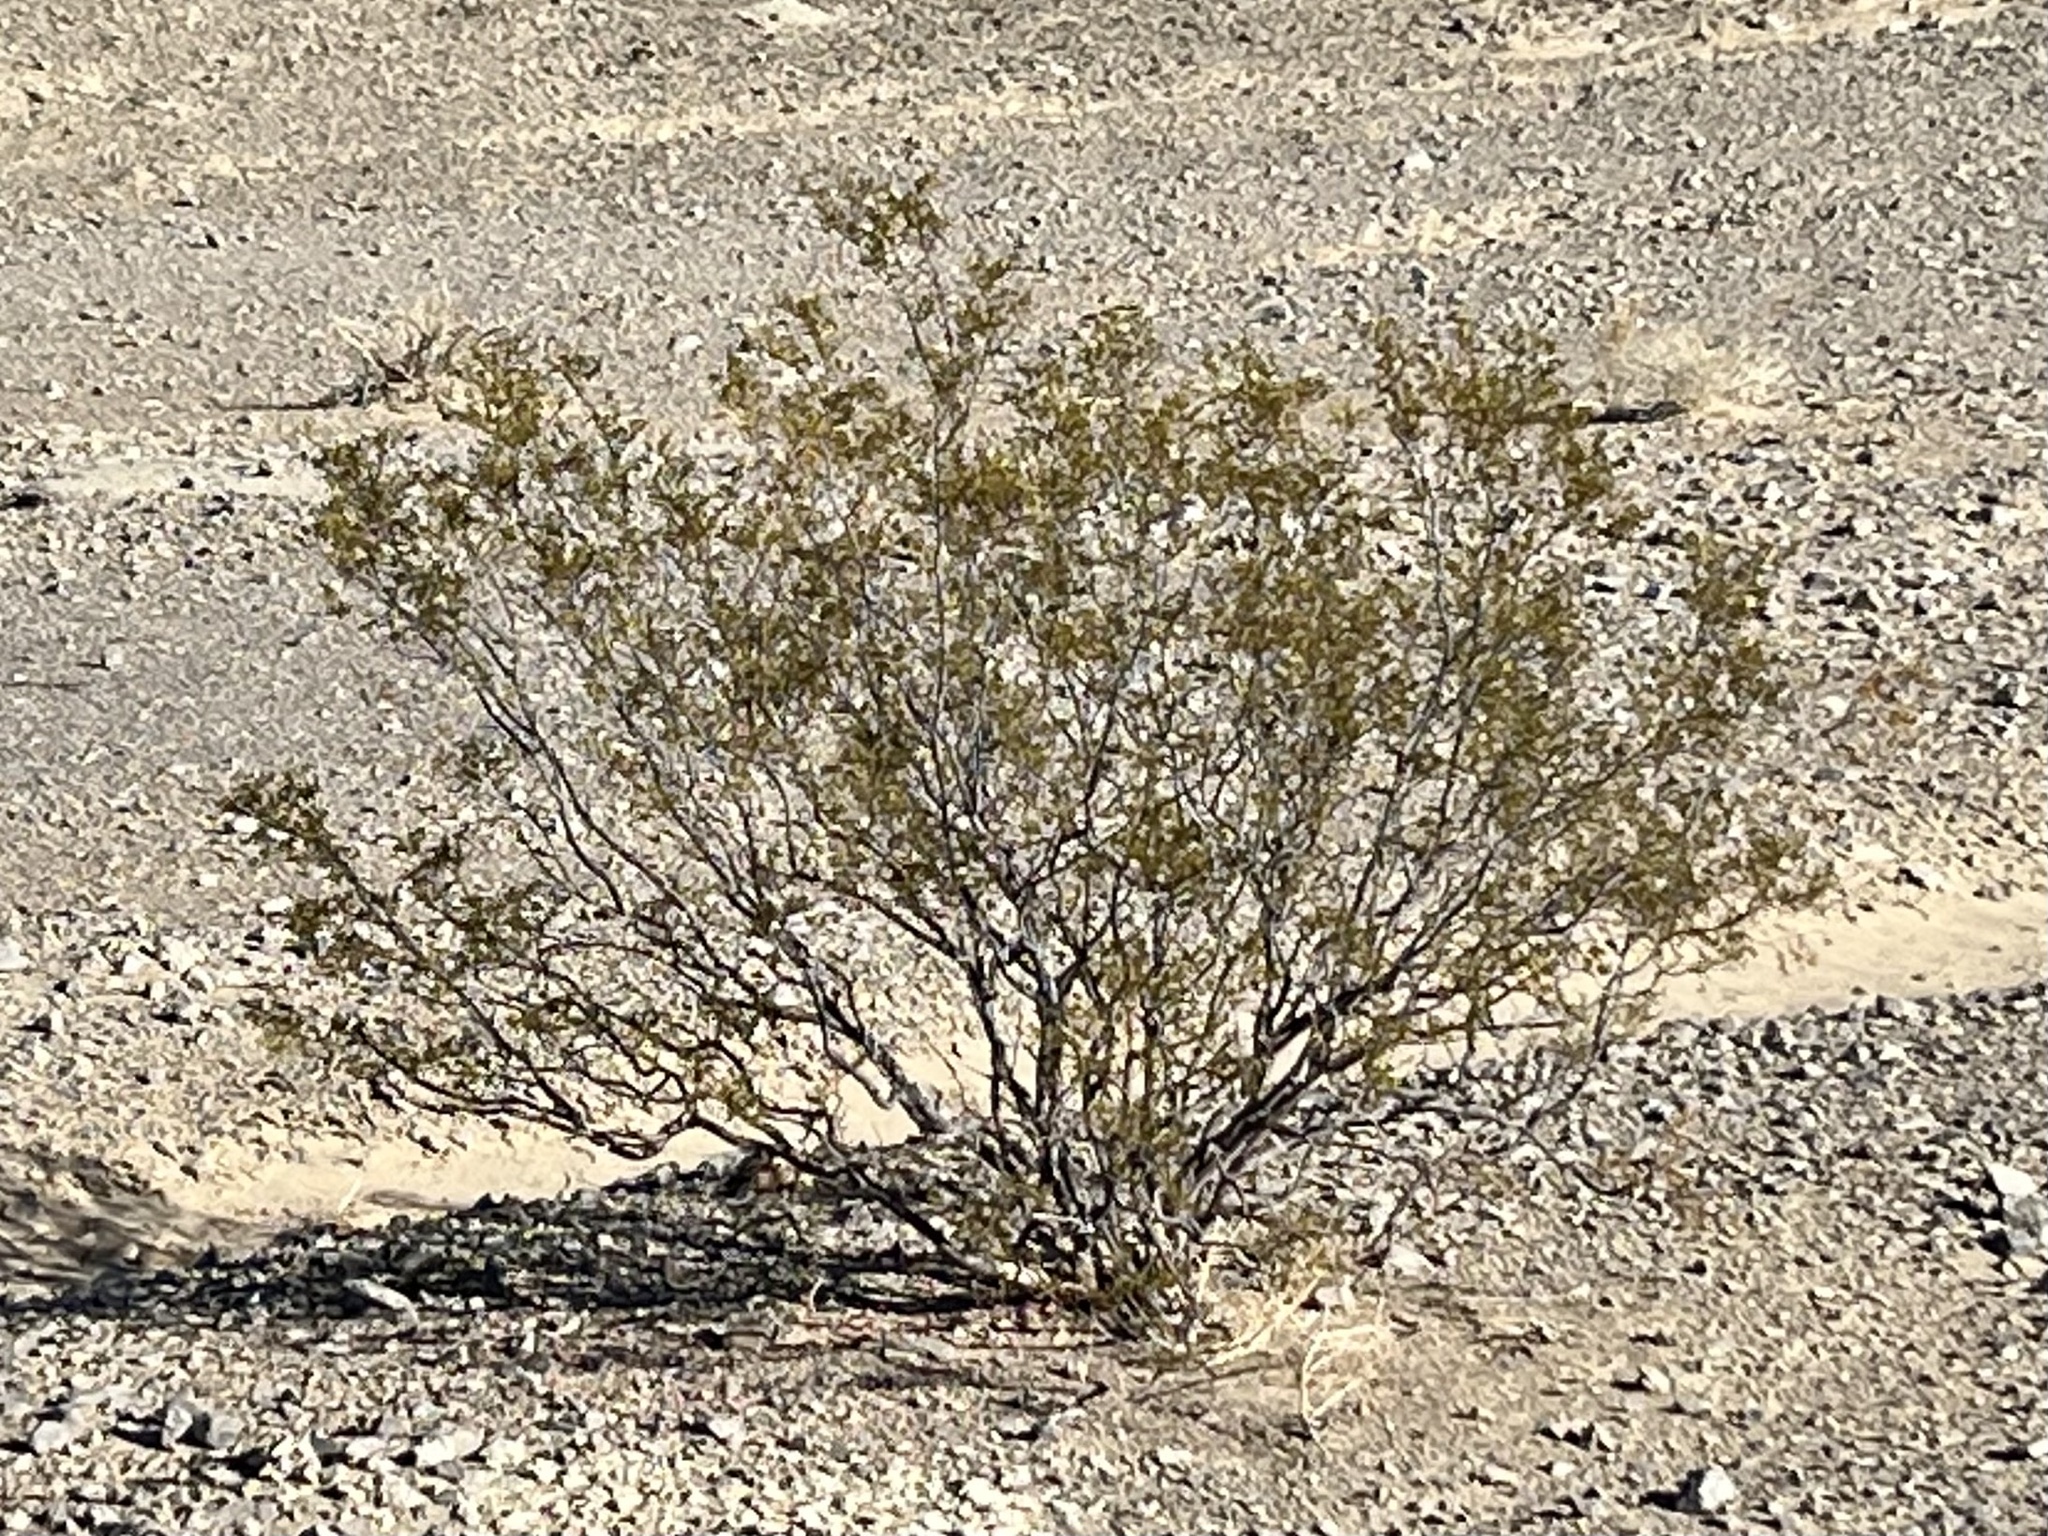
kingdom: Plantae
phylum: Tracheophyta
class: Magnoliopsida
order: Zygophyllales
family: Zygophyllaceae
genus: Larrea
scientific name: Larrea tridentata
